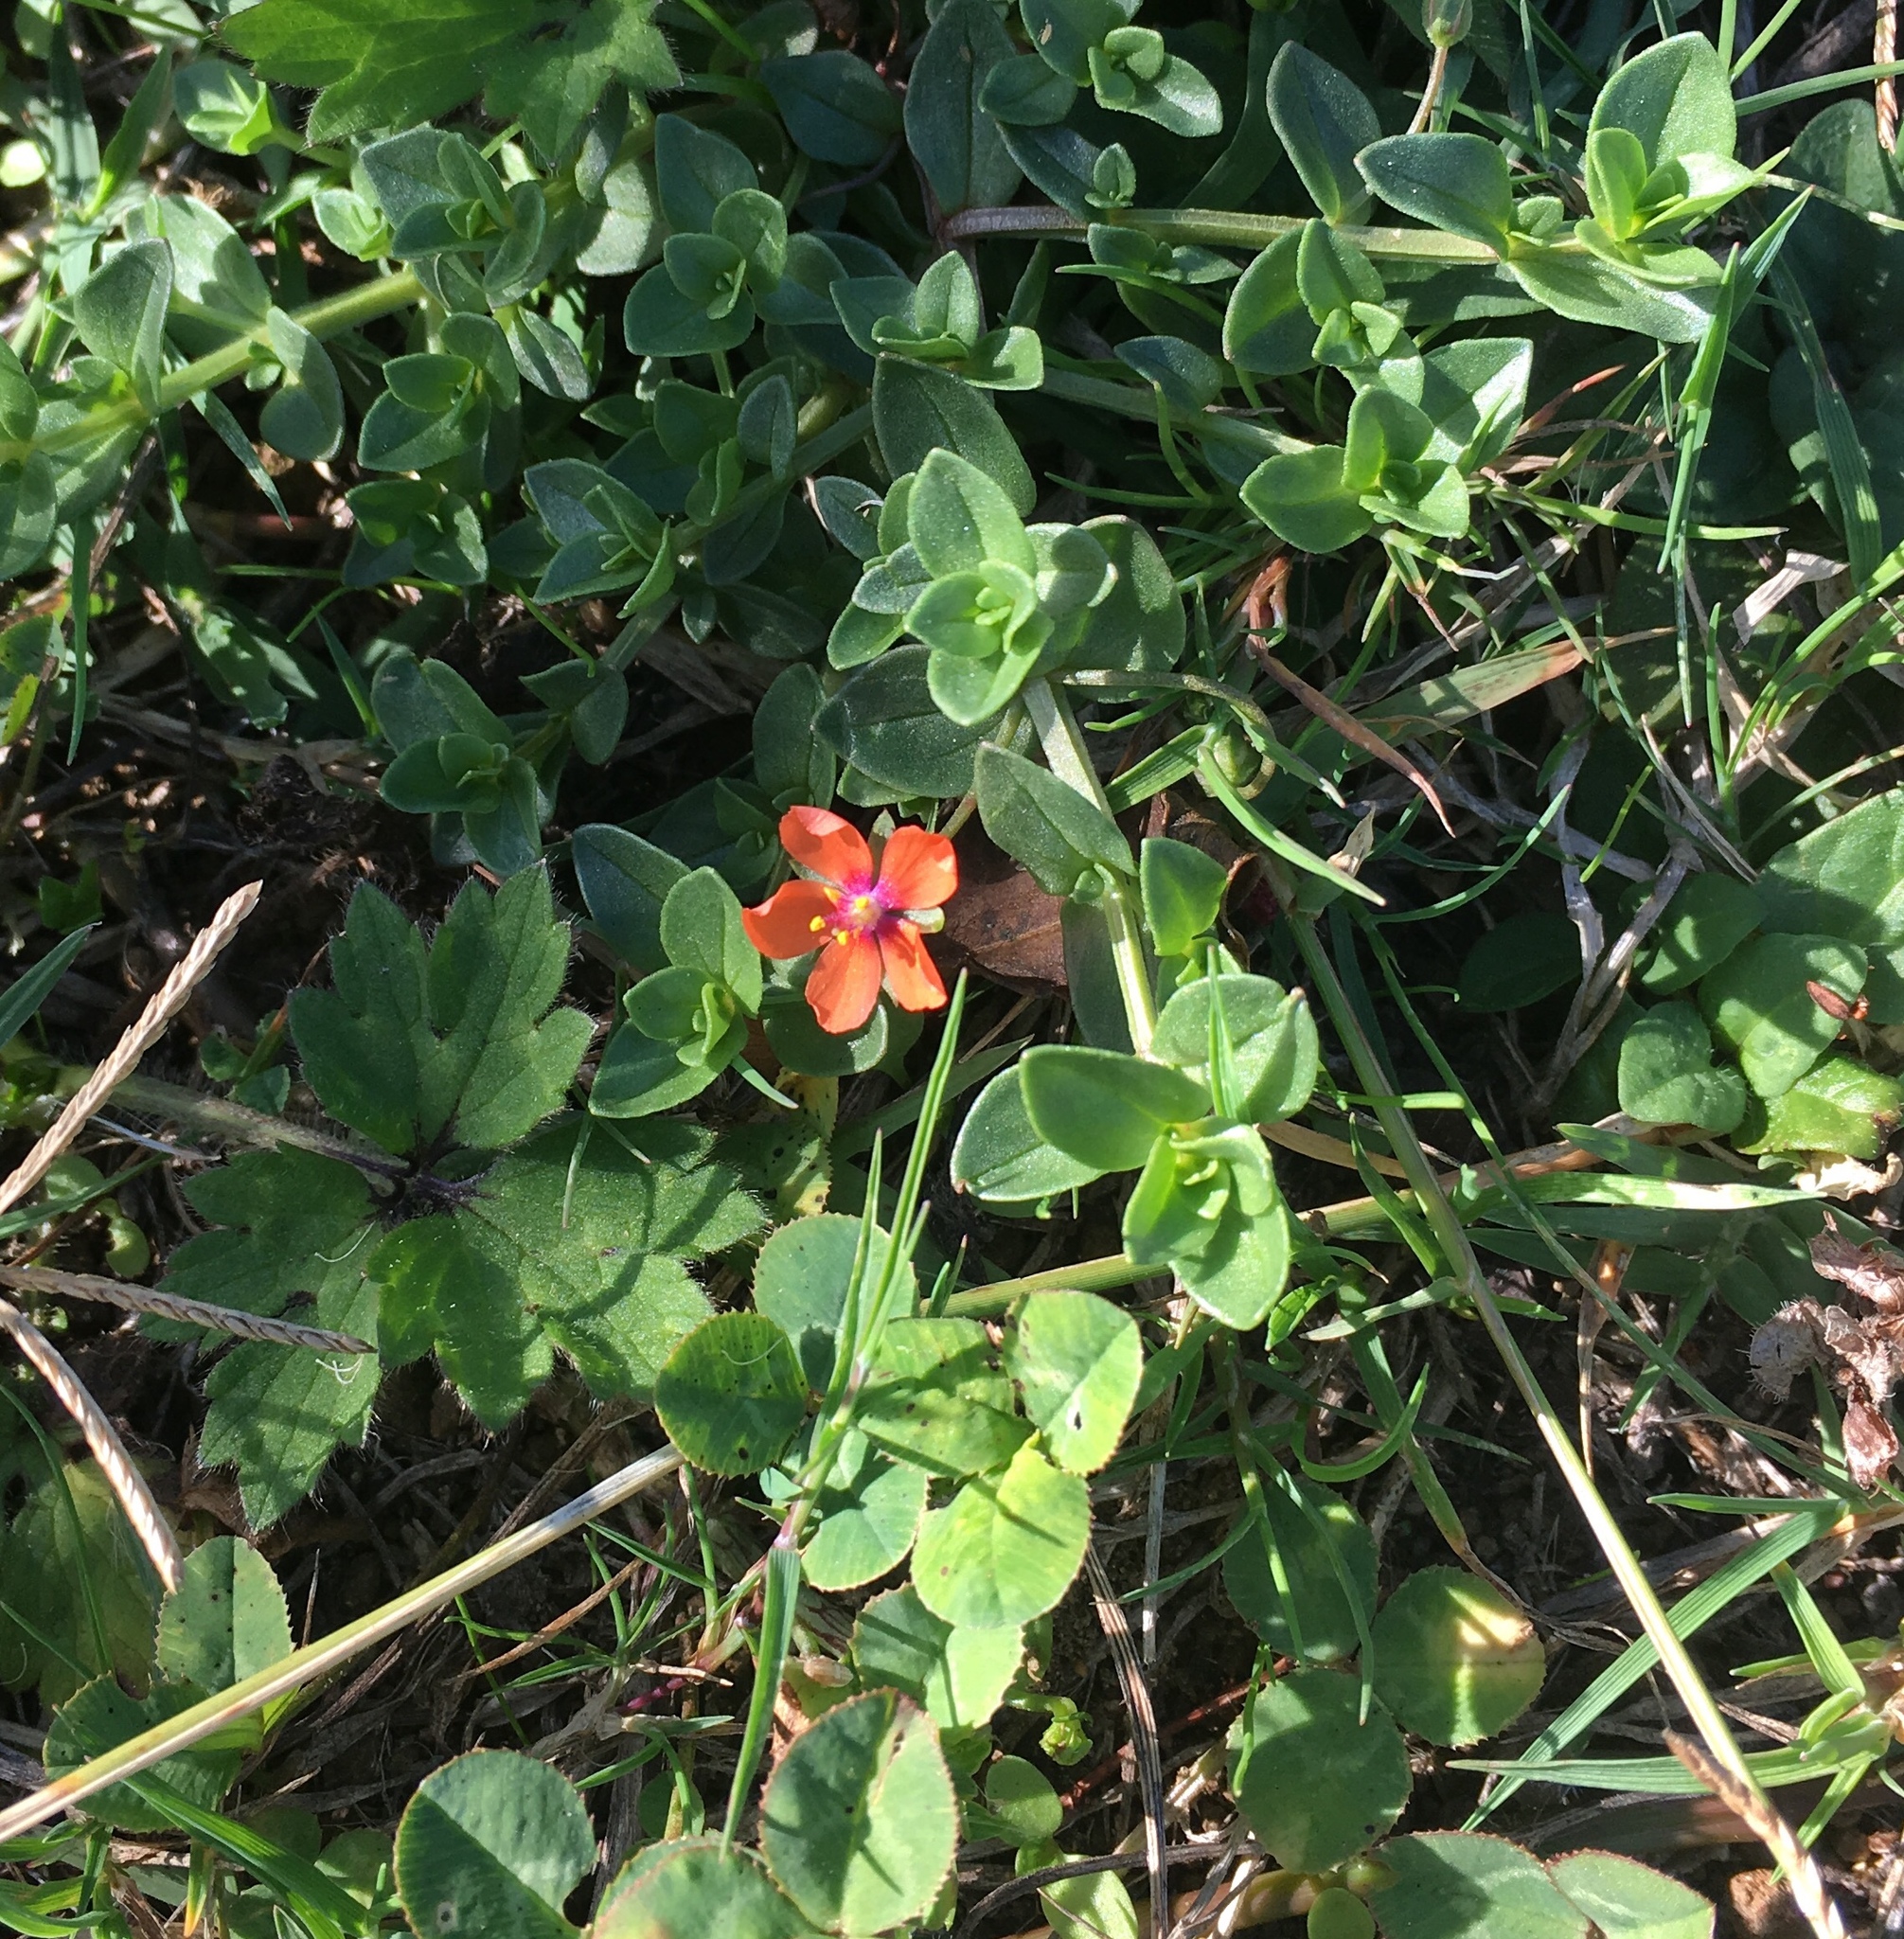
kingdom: Plantae
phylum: Tracheophyta
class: Magnoliopsida
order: Ericales
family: Primulaceae
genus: Lysimachia
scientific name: Lysimachia arvensis
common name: Scarlet pimpernel
